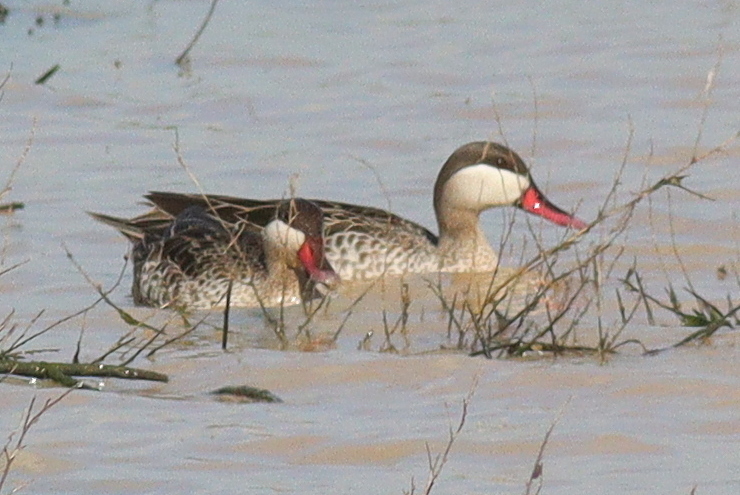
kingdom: Animalia
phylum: Chordata
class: Aves
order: Anseriformes
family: Anatidae
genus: Anas
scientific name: Anas erythrorhyncha
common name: Red-billed teal
